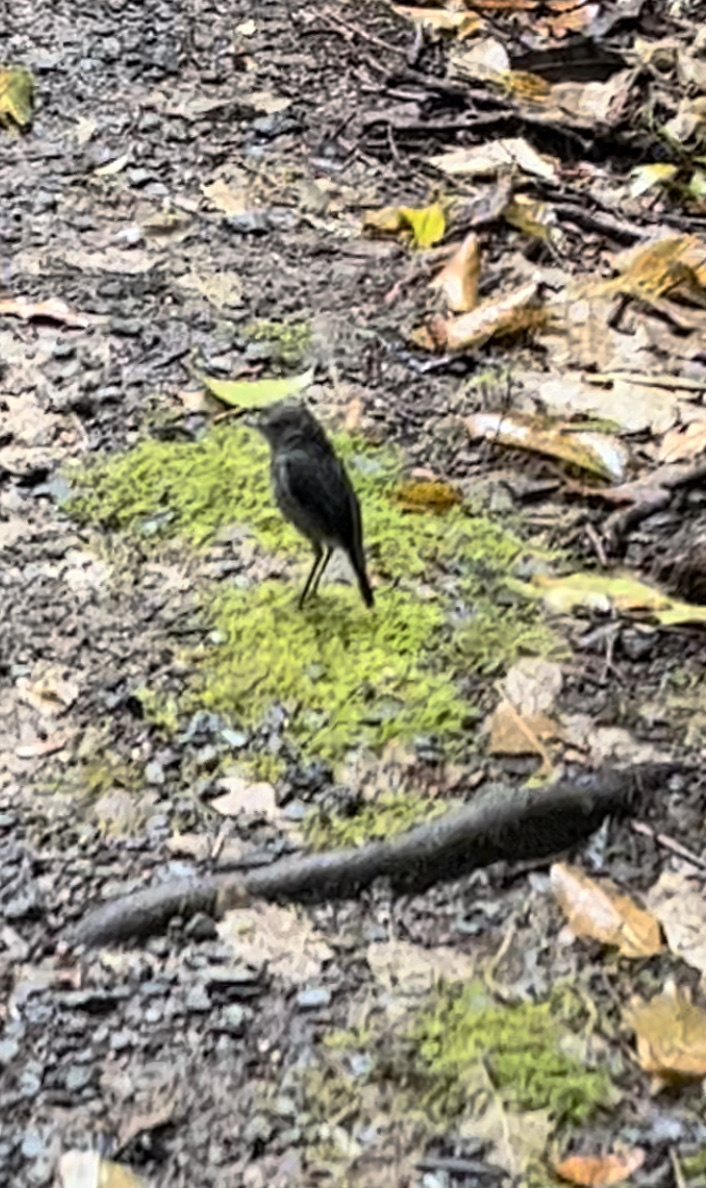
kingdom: Animalia
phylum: Chordata
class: Aves
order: Passeriformes
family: Petroicidae
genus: Petroica
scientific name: Petroica australis
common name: New zealand robin
